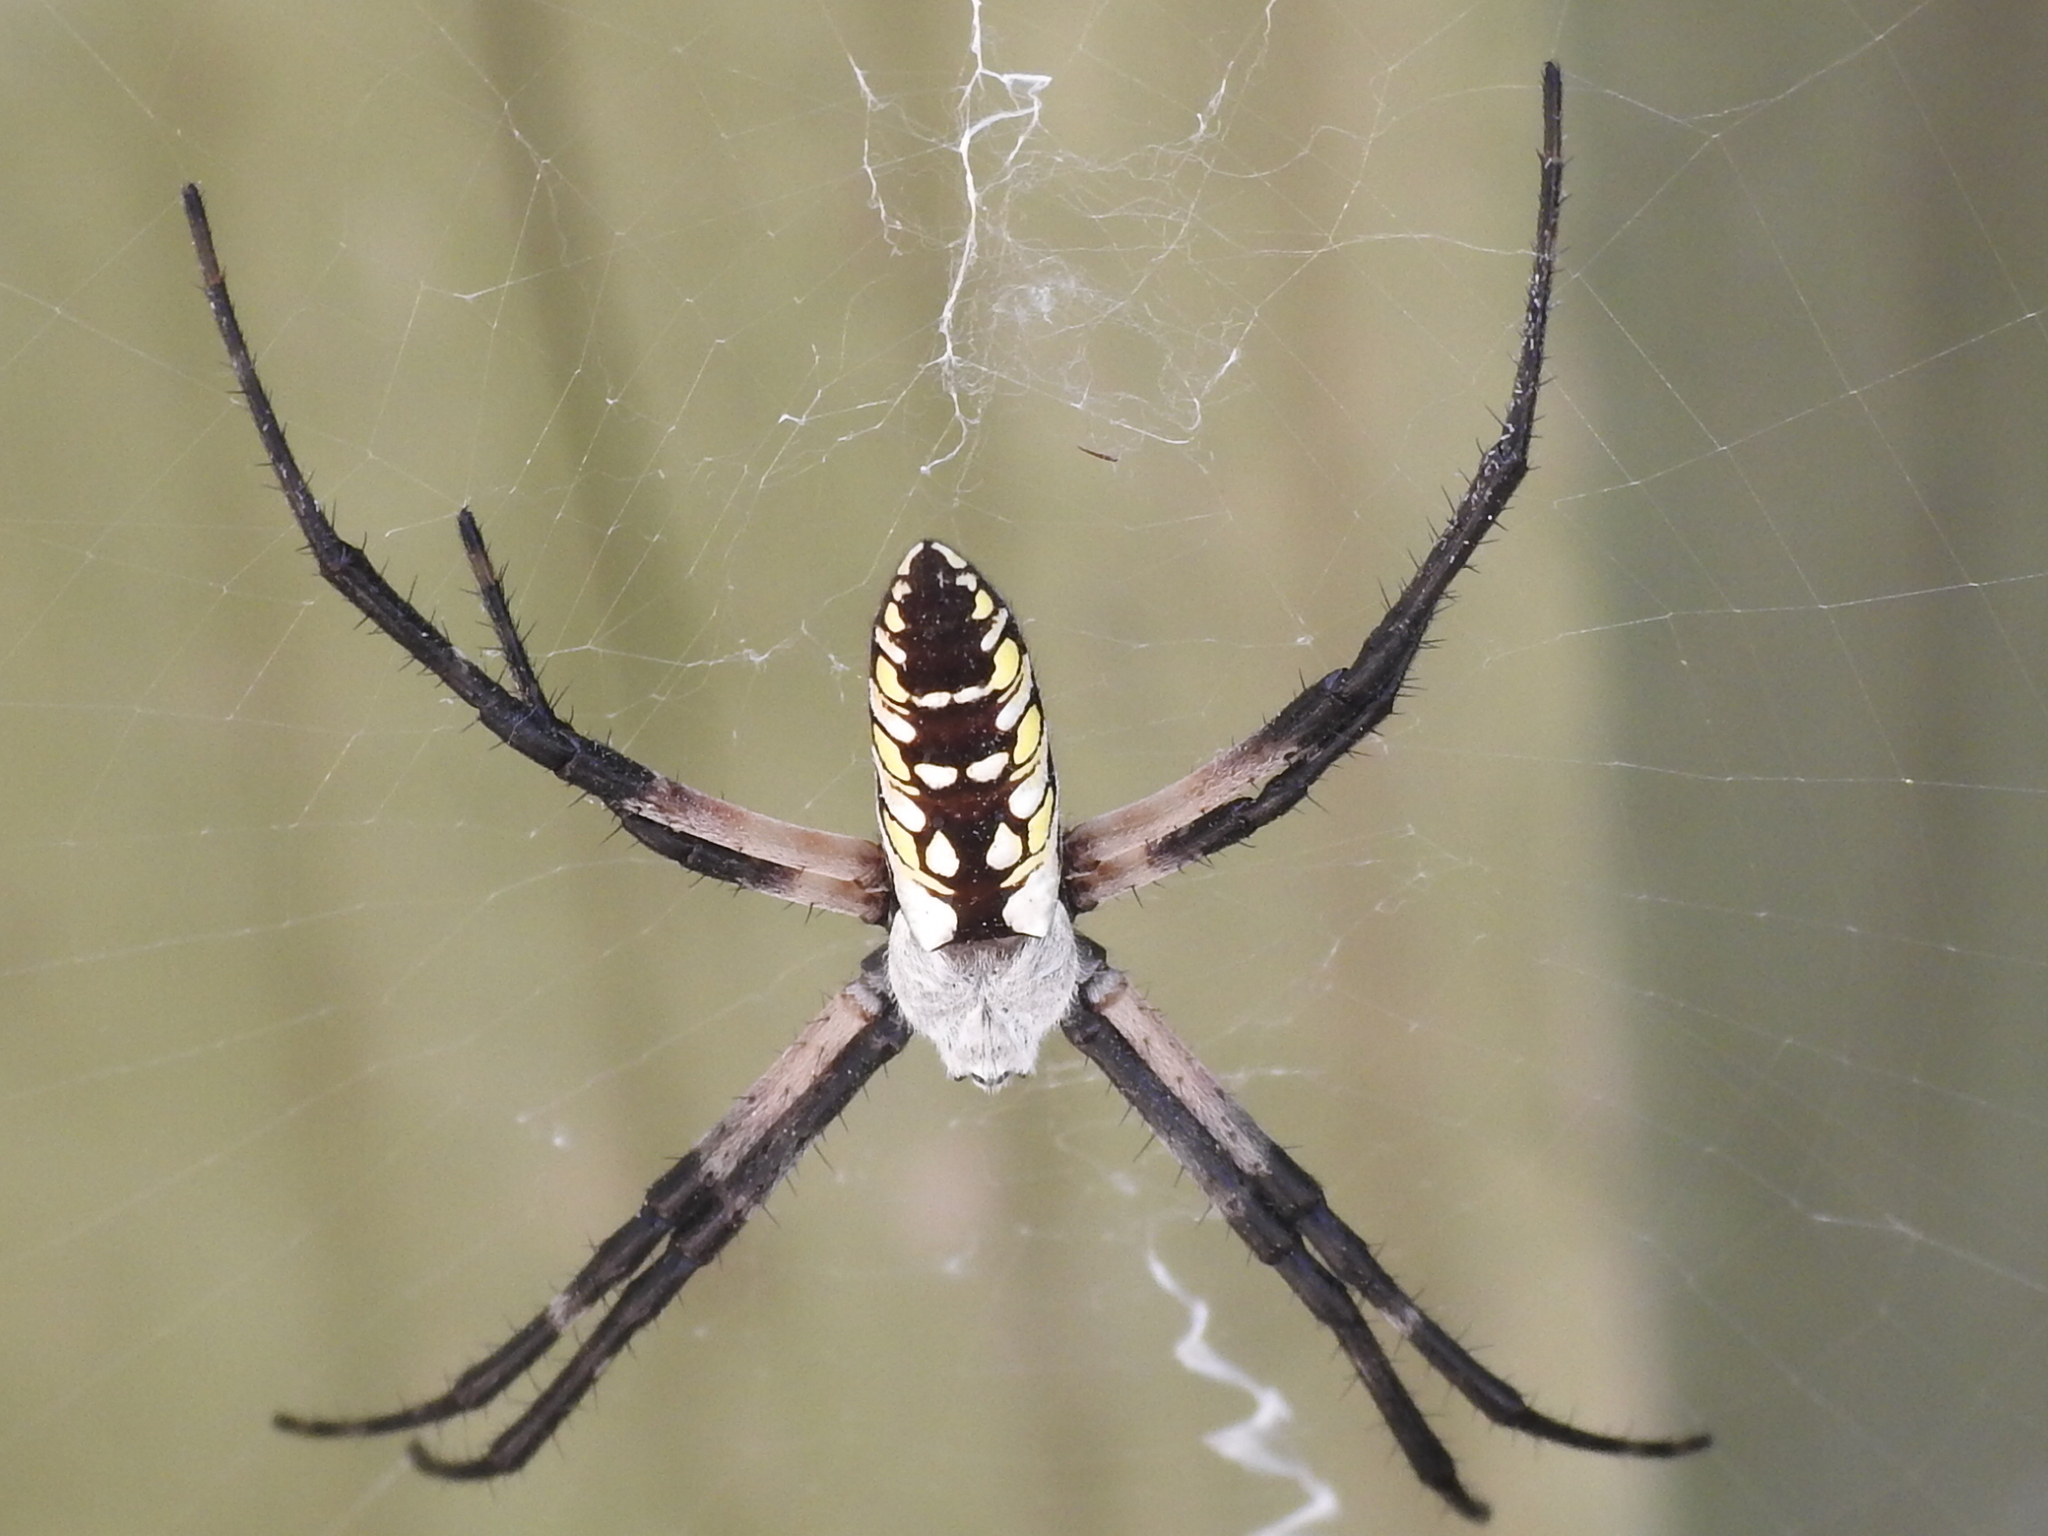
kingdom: Animalia
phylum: Arthropoda
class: Arachnida
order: Araneae
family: Araneidae
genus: Argiope
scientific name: Argiope aurantia
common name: Orb weavers
